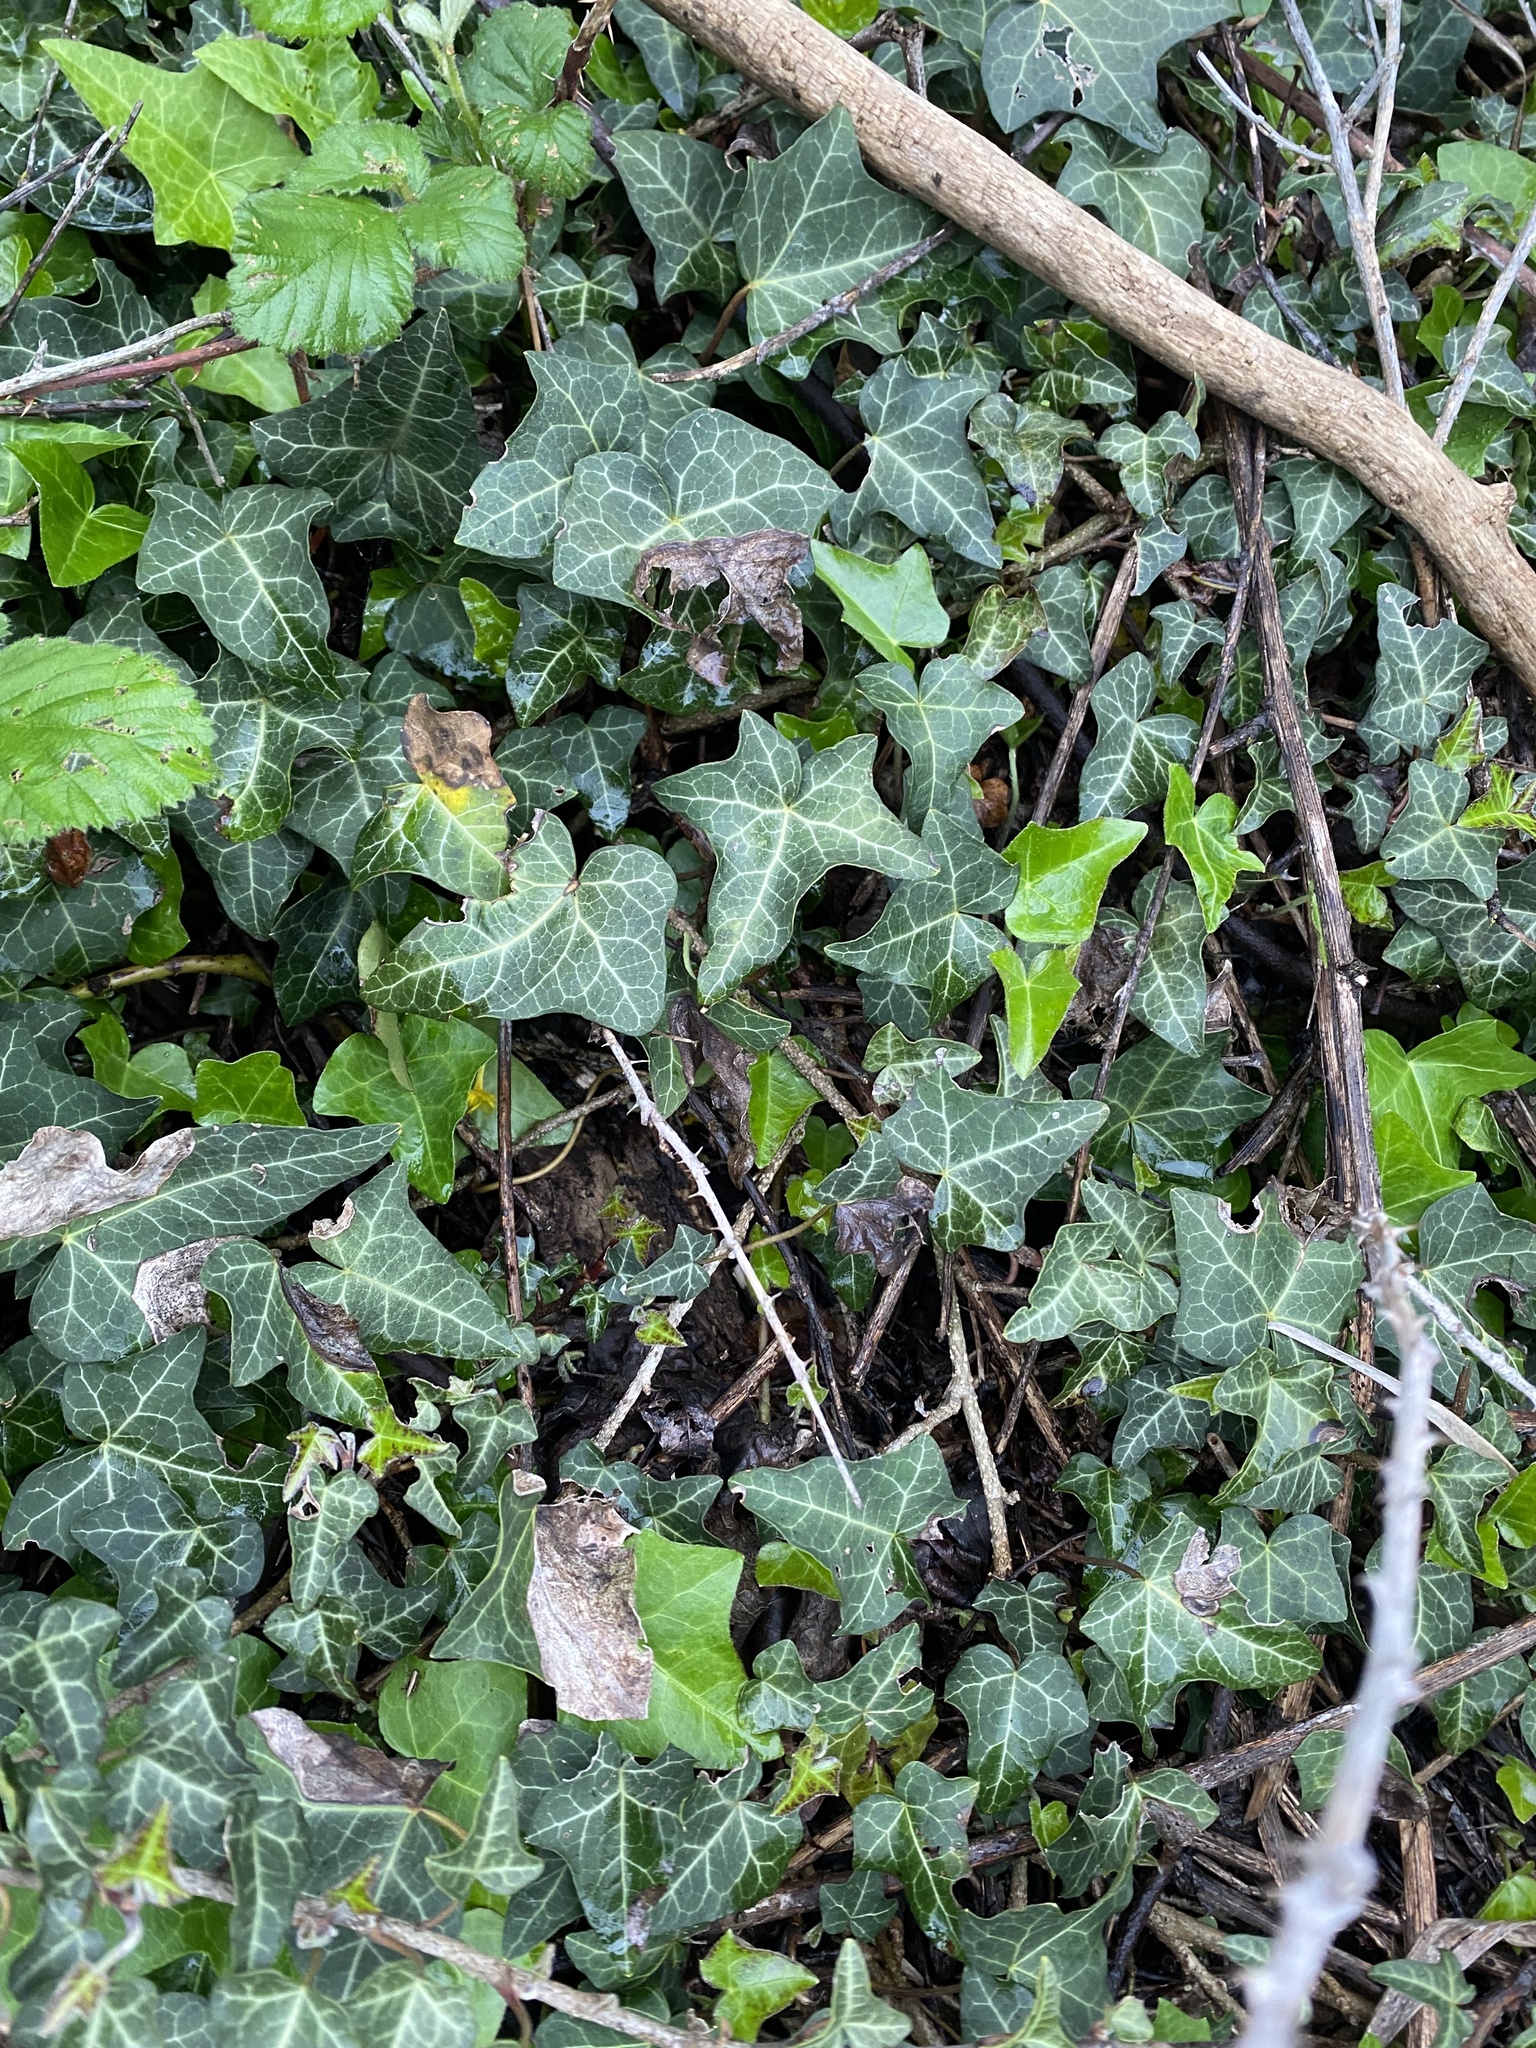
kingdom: Plantae
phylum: Tracheophyta
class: Magnoliopsida
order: Apiales
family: Araliaceae
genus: Hedera
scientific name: Hedera helix
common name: Ivy
